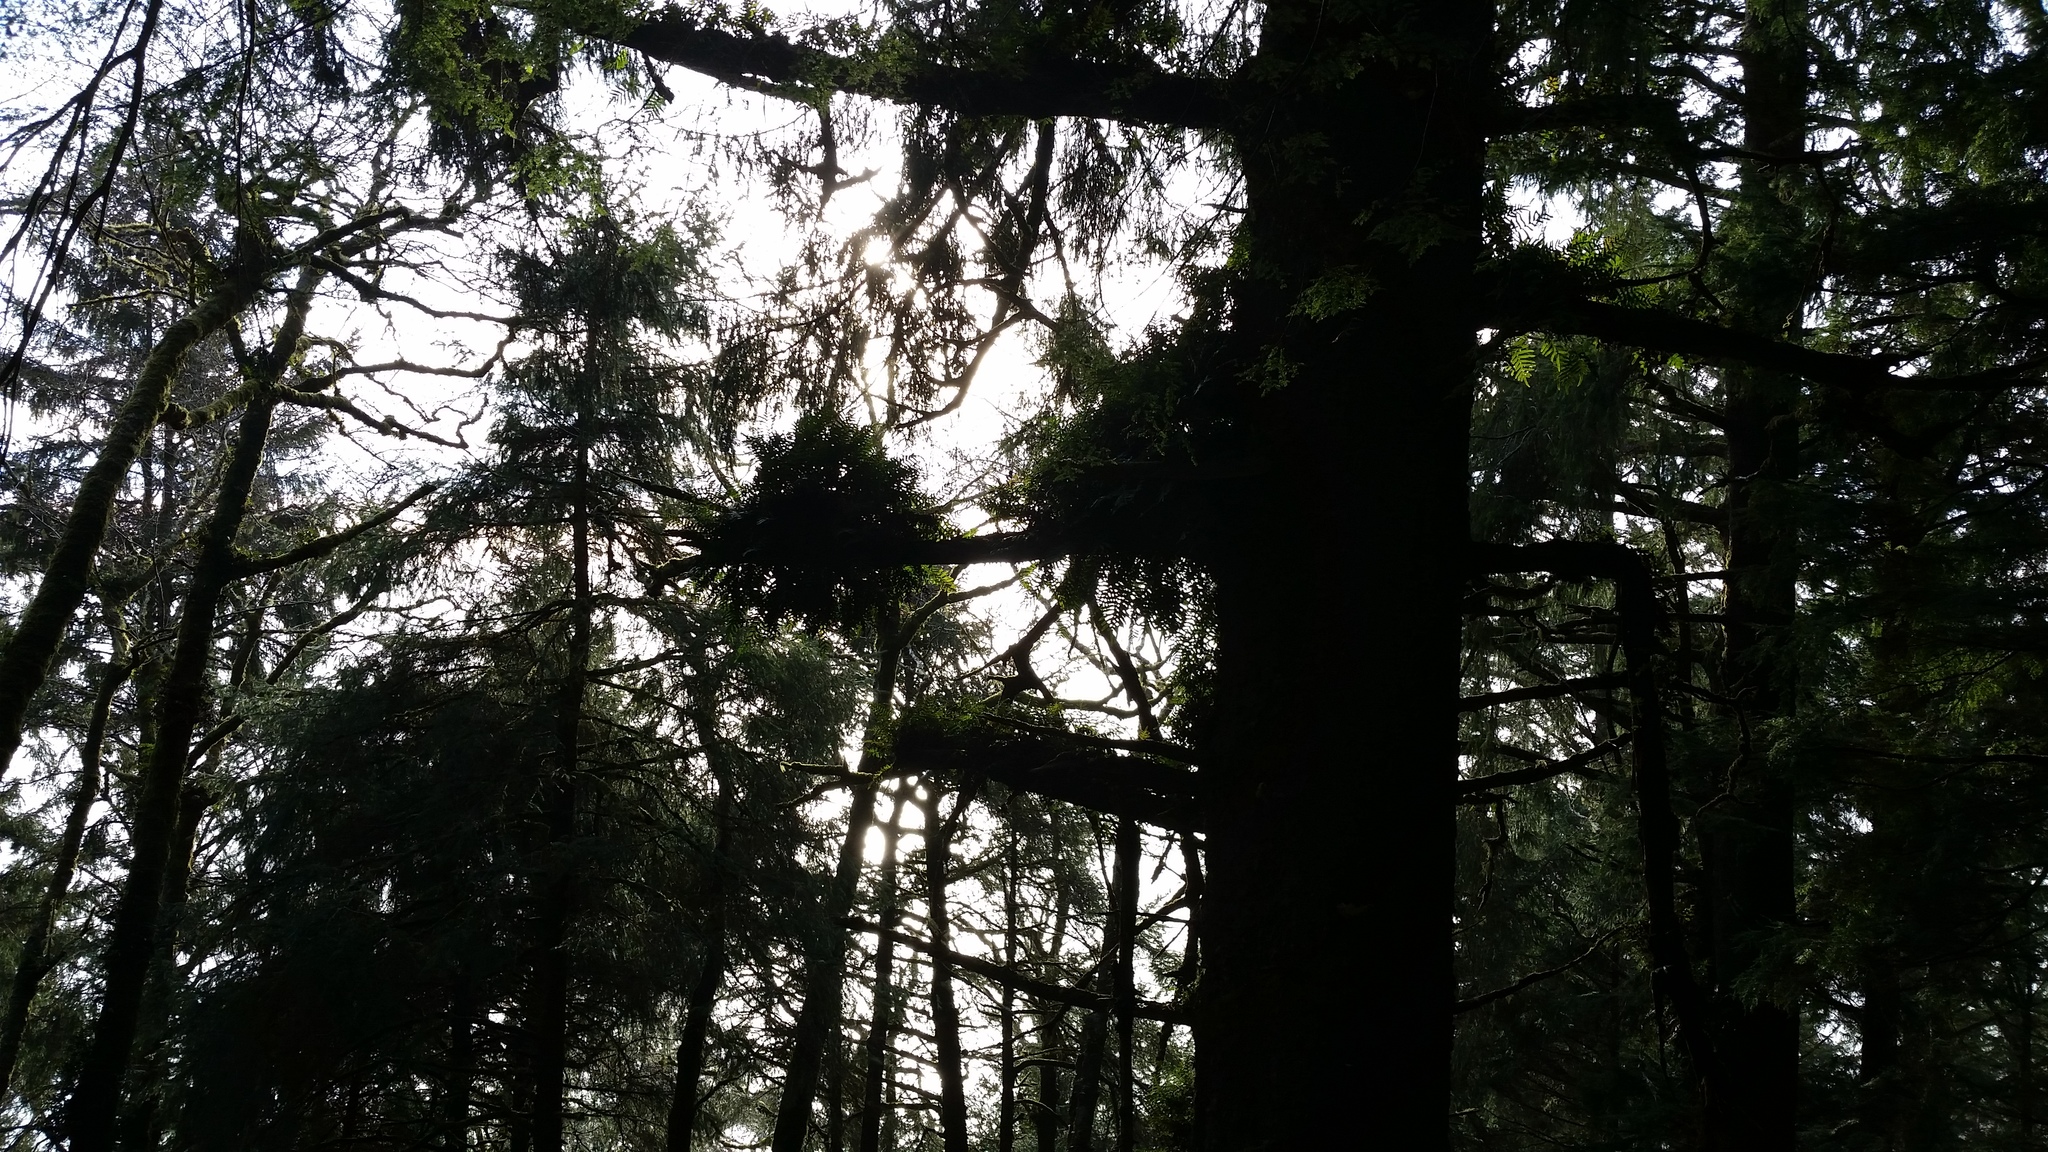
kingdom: Plantae
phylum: Tracheophyta
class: Polypodiopsida
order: Polypodiales
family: Polypodiaceae
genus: Polypodium
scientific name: Polypodium scouleri
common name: Scouler's polypody
